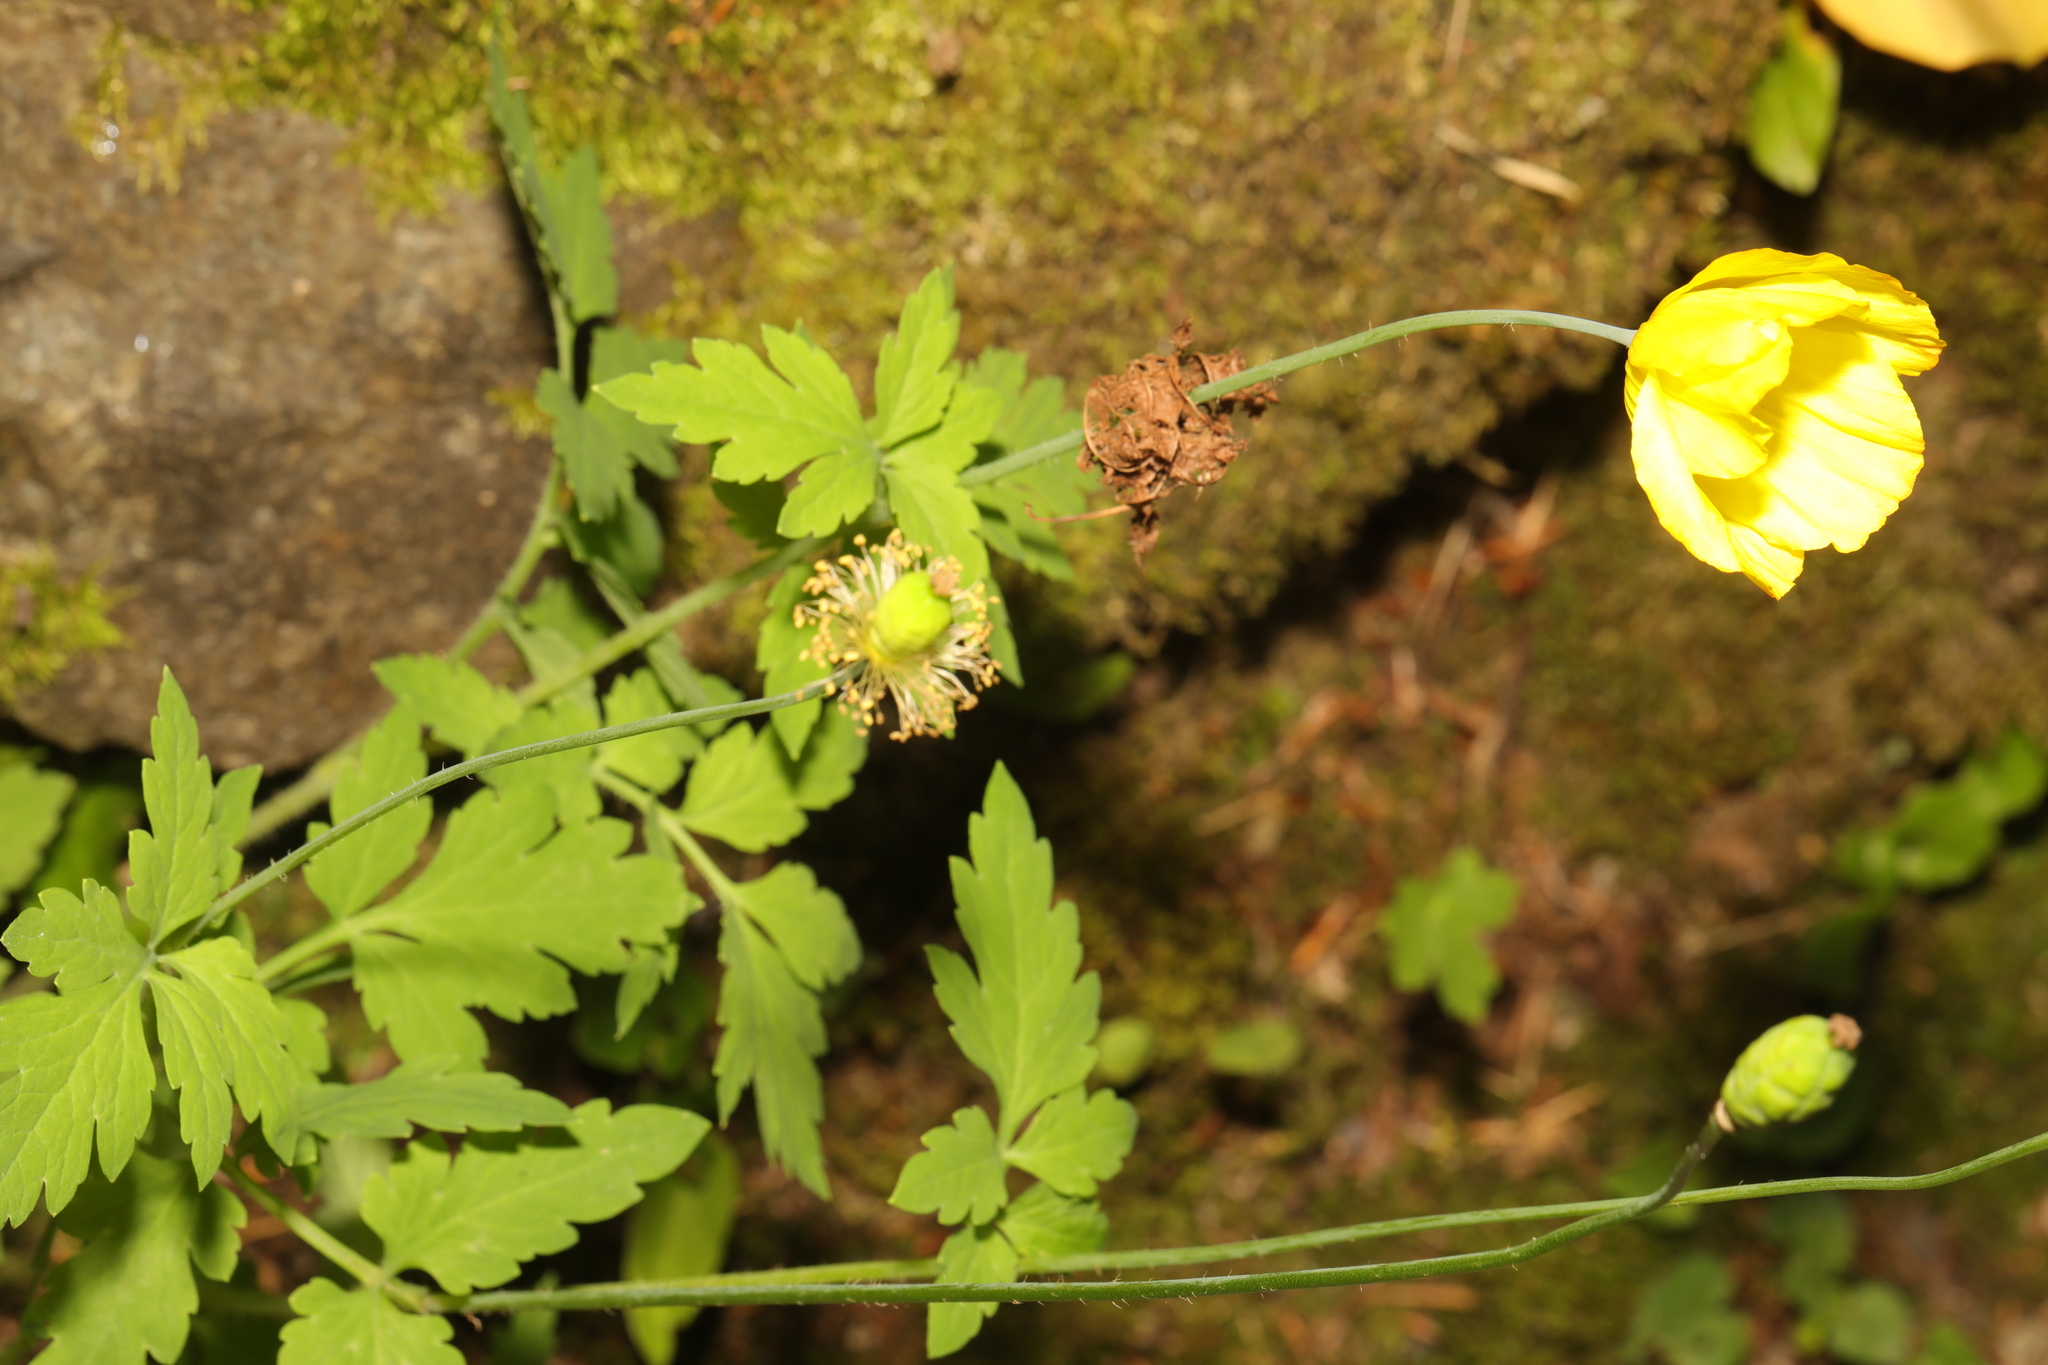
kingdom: Plantae
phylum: Tracheophyta
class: Magnoliopsida
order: Ranunculales
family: Papaveraceae
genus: Papaver
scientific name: Papaver cambricum
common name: Poppy
